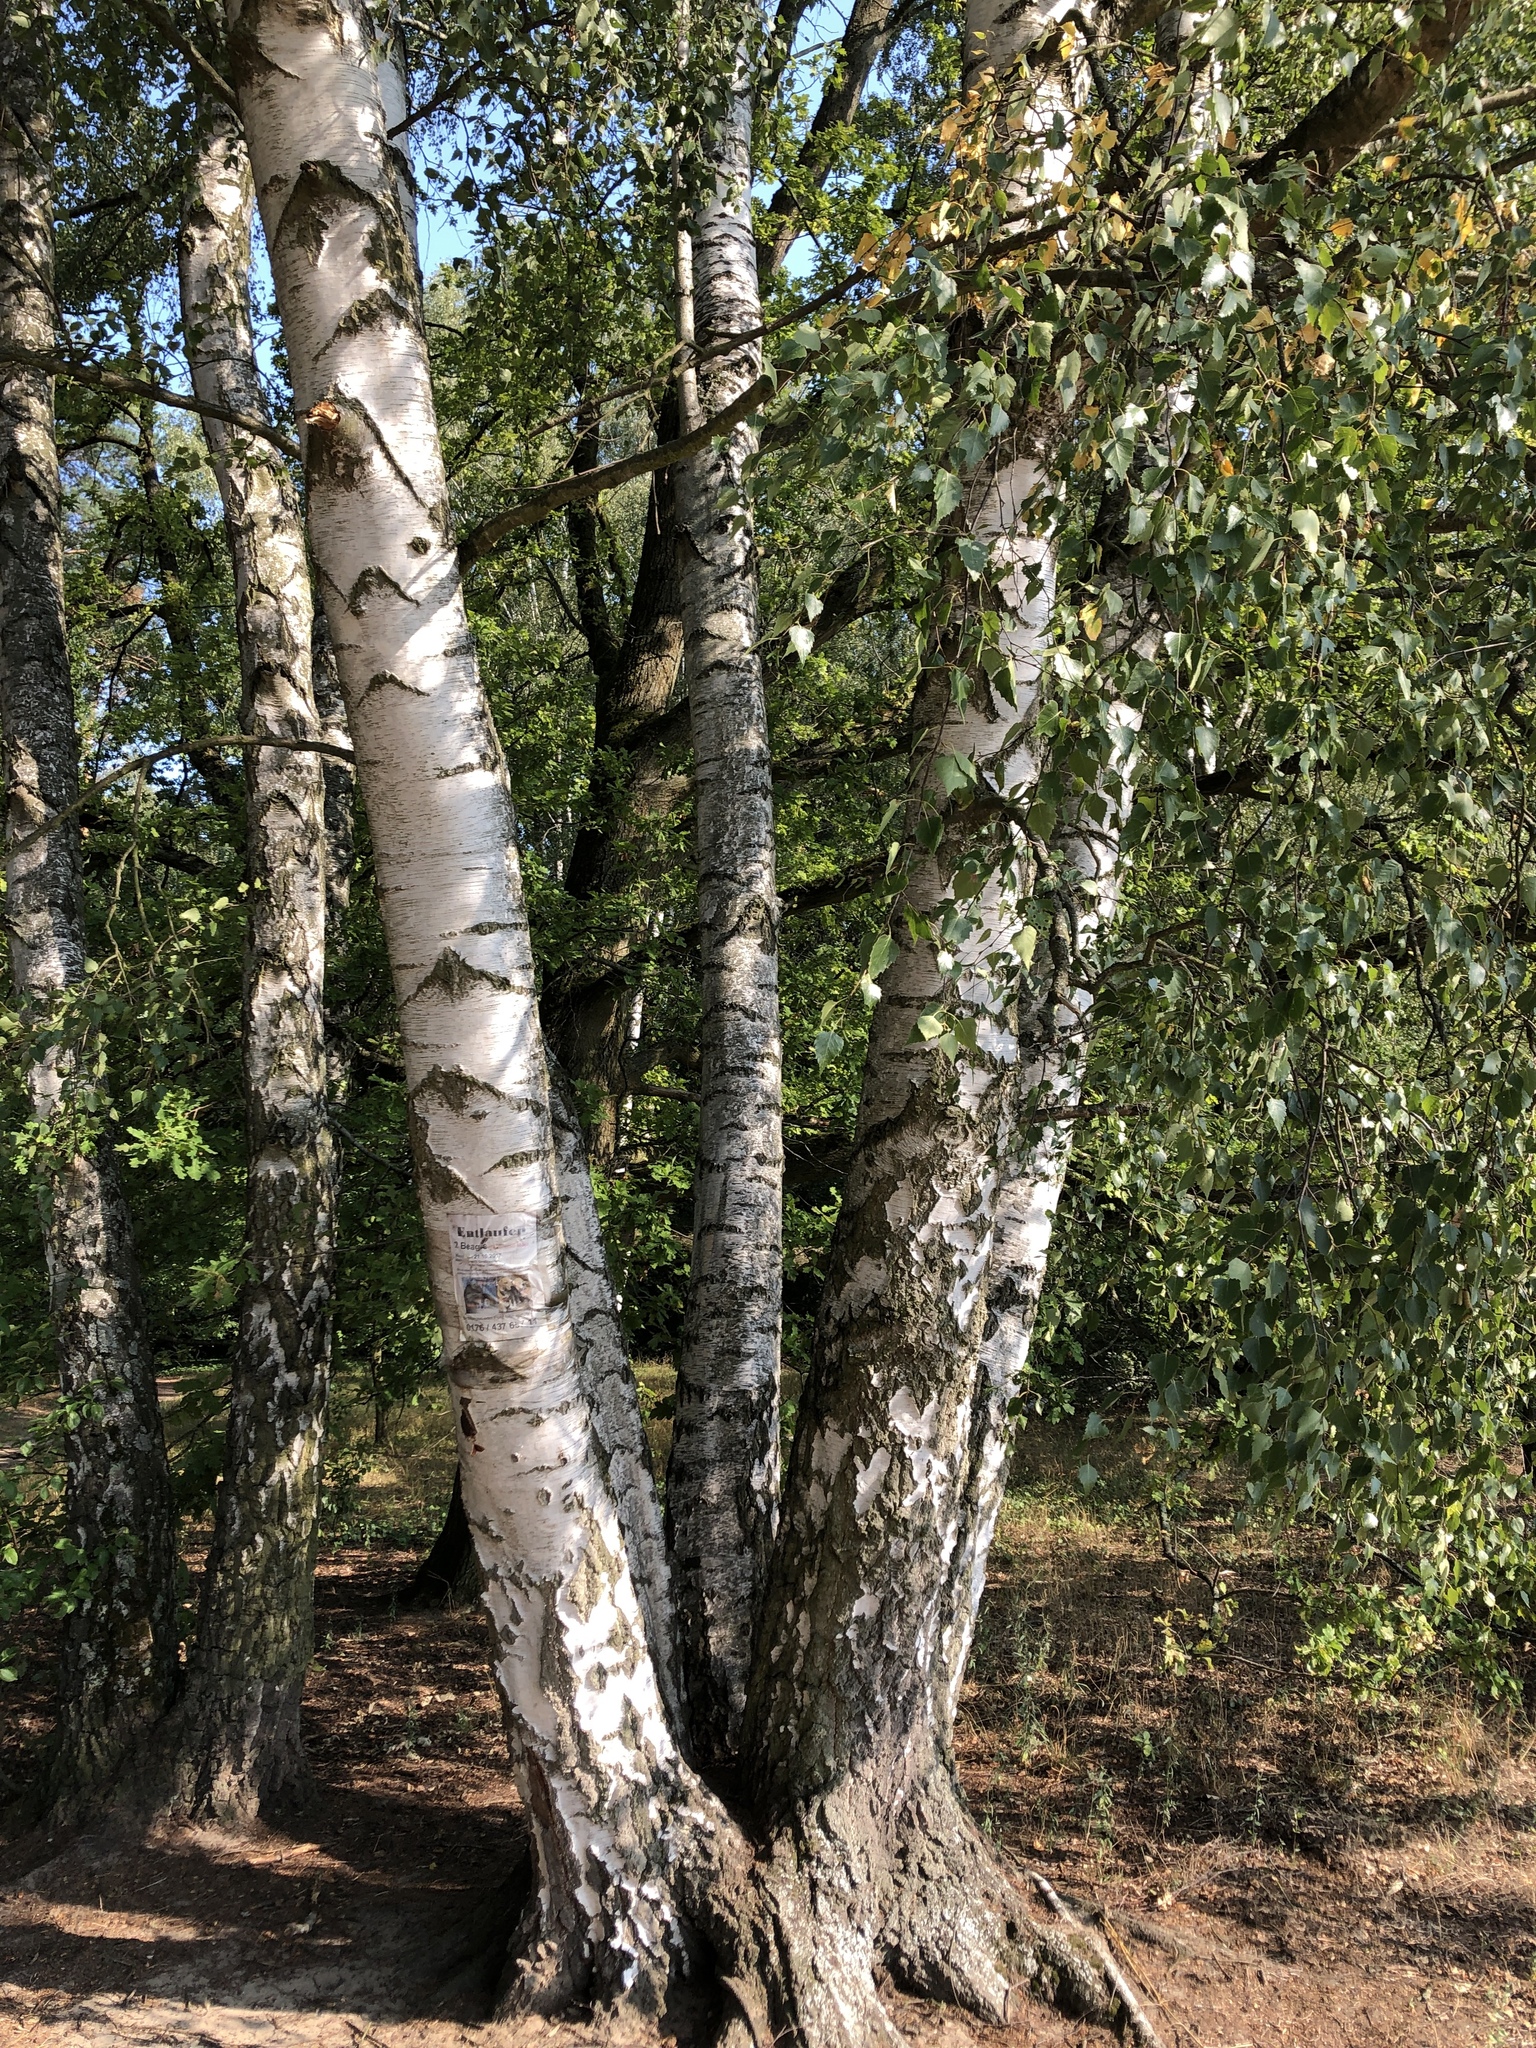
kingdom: Plantae
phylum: Tracheophyta
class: Magnoliopsida
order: Fagales
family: Betulaceae
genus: Betula
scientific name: Betula pendula
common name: Silver birch
